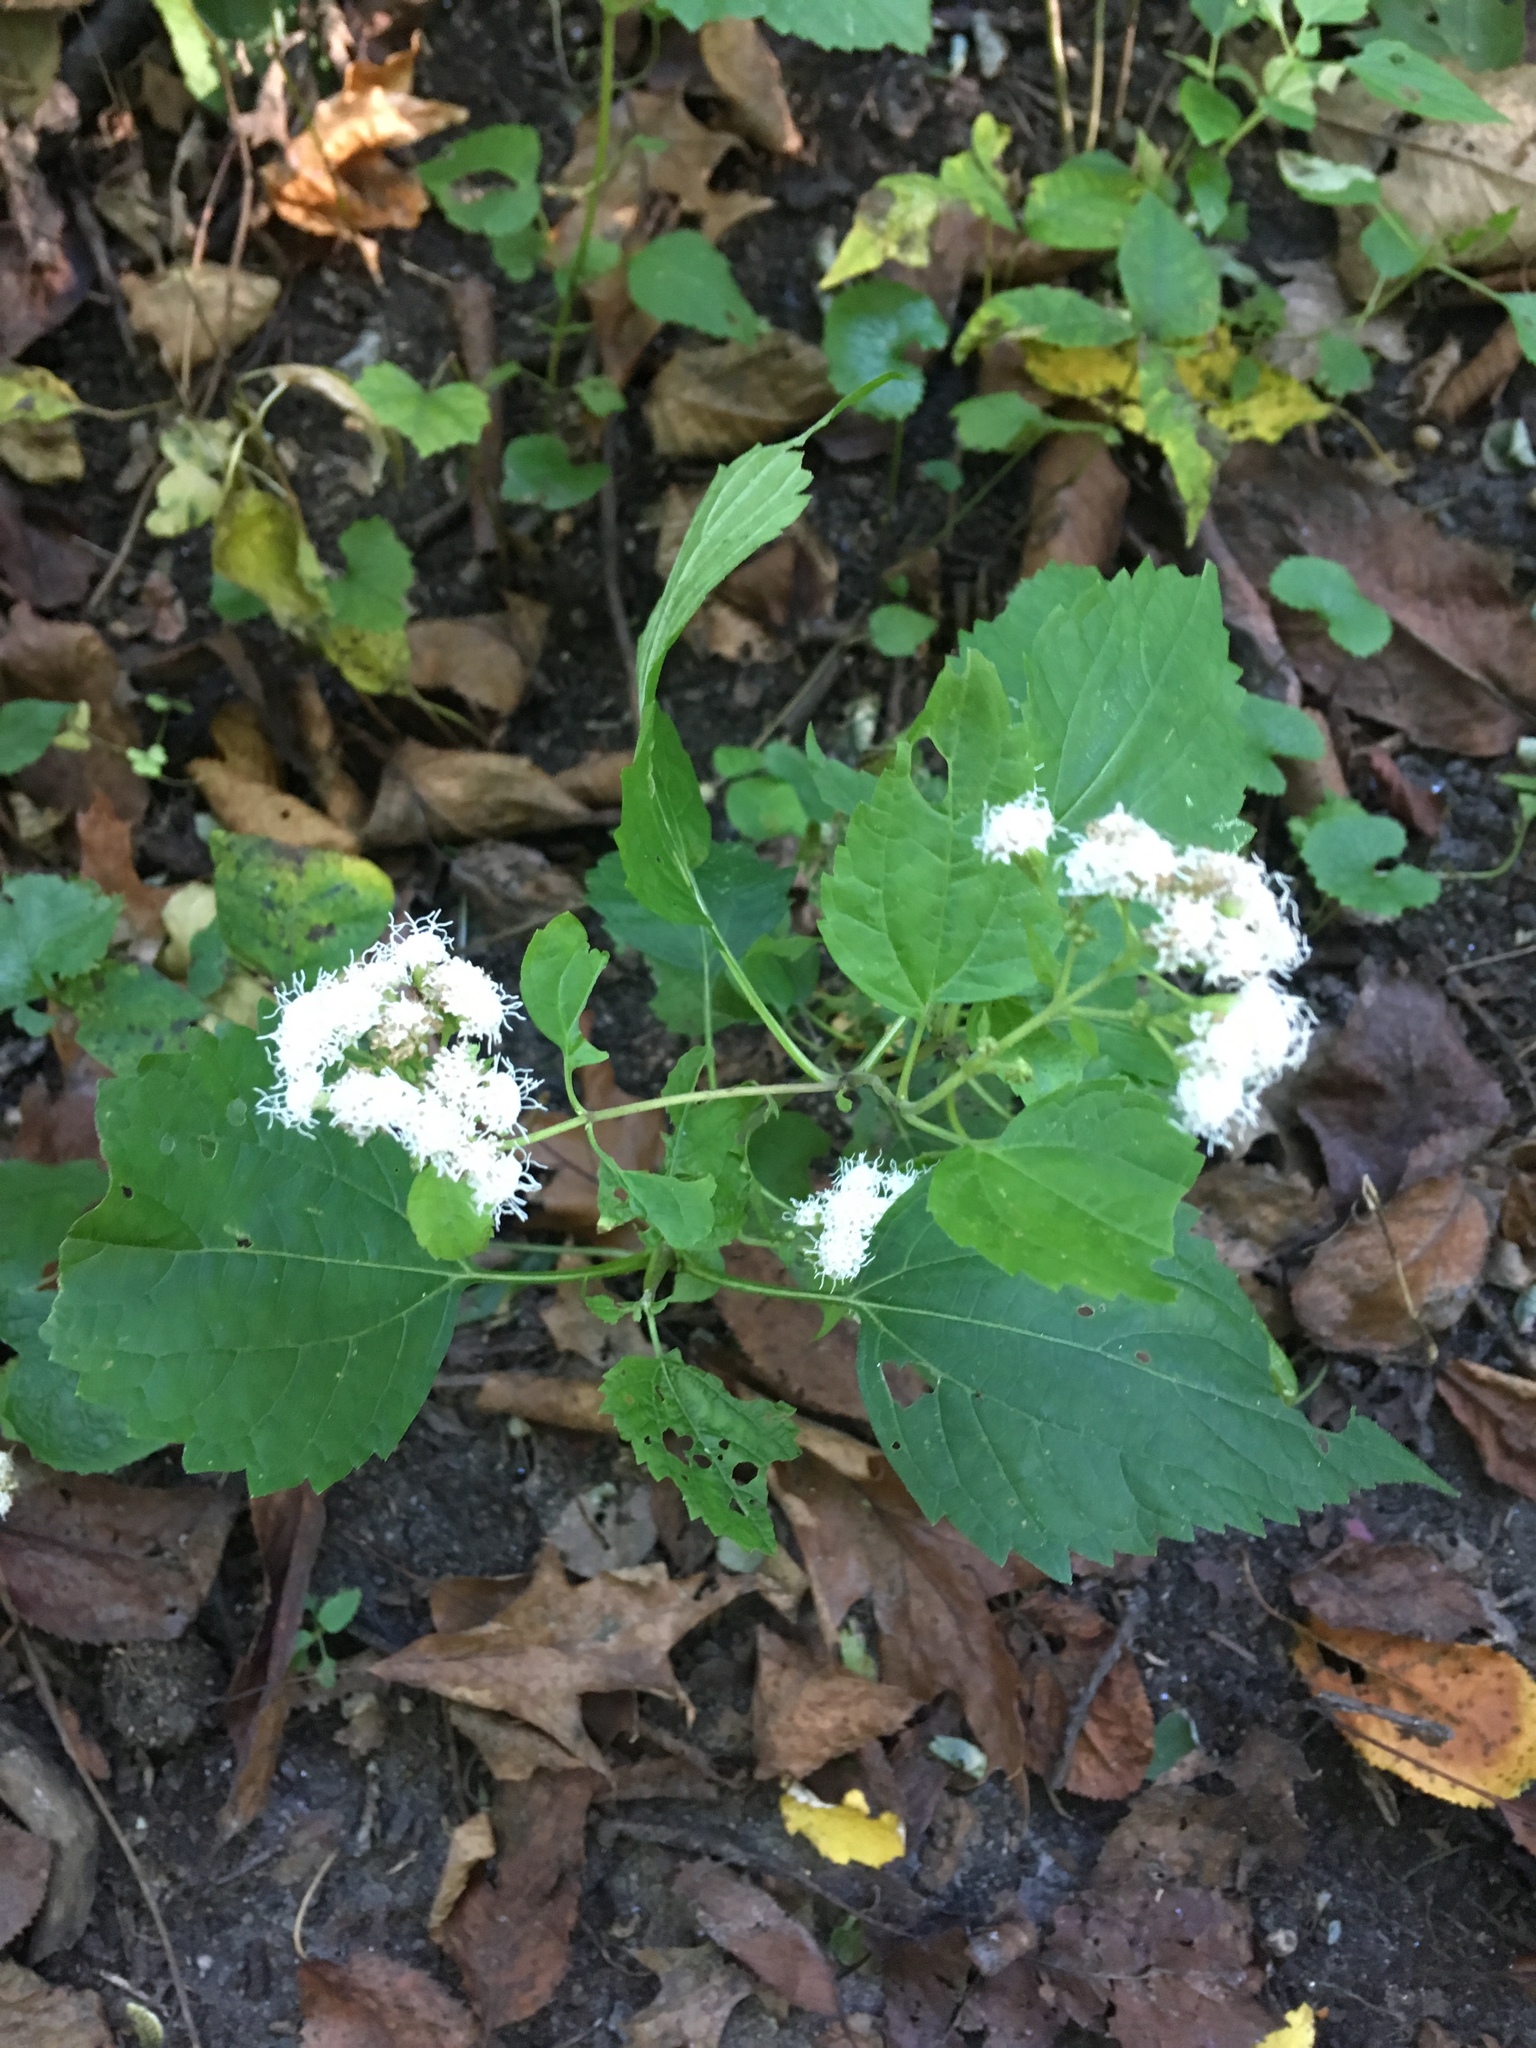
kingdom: Plantae
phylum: Tracheophyta
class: Magnoliopsida
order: Asterales
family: Asteraceae
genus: Ageratina
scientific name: Ageratina altissima
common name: White snakeroot
